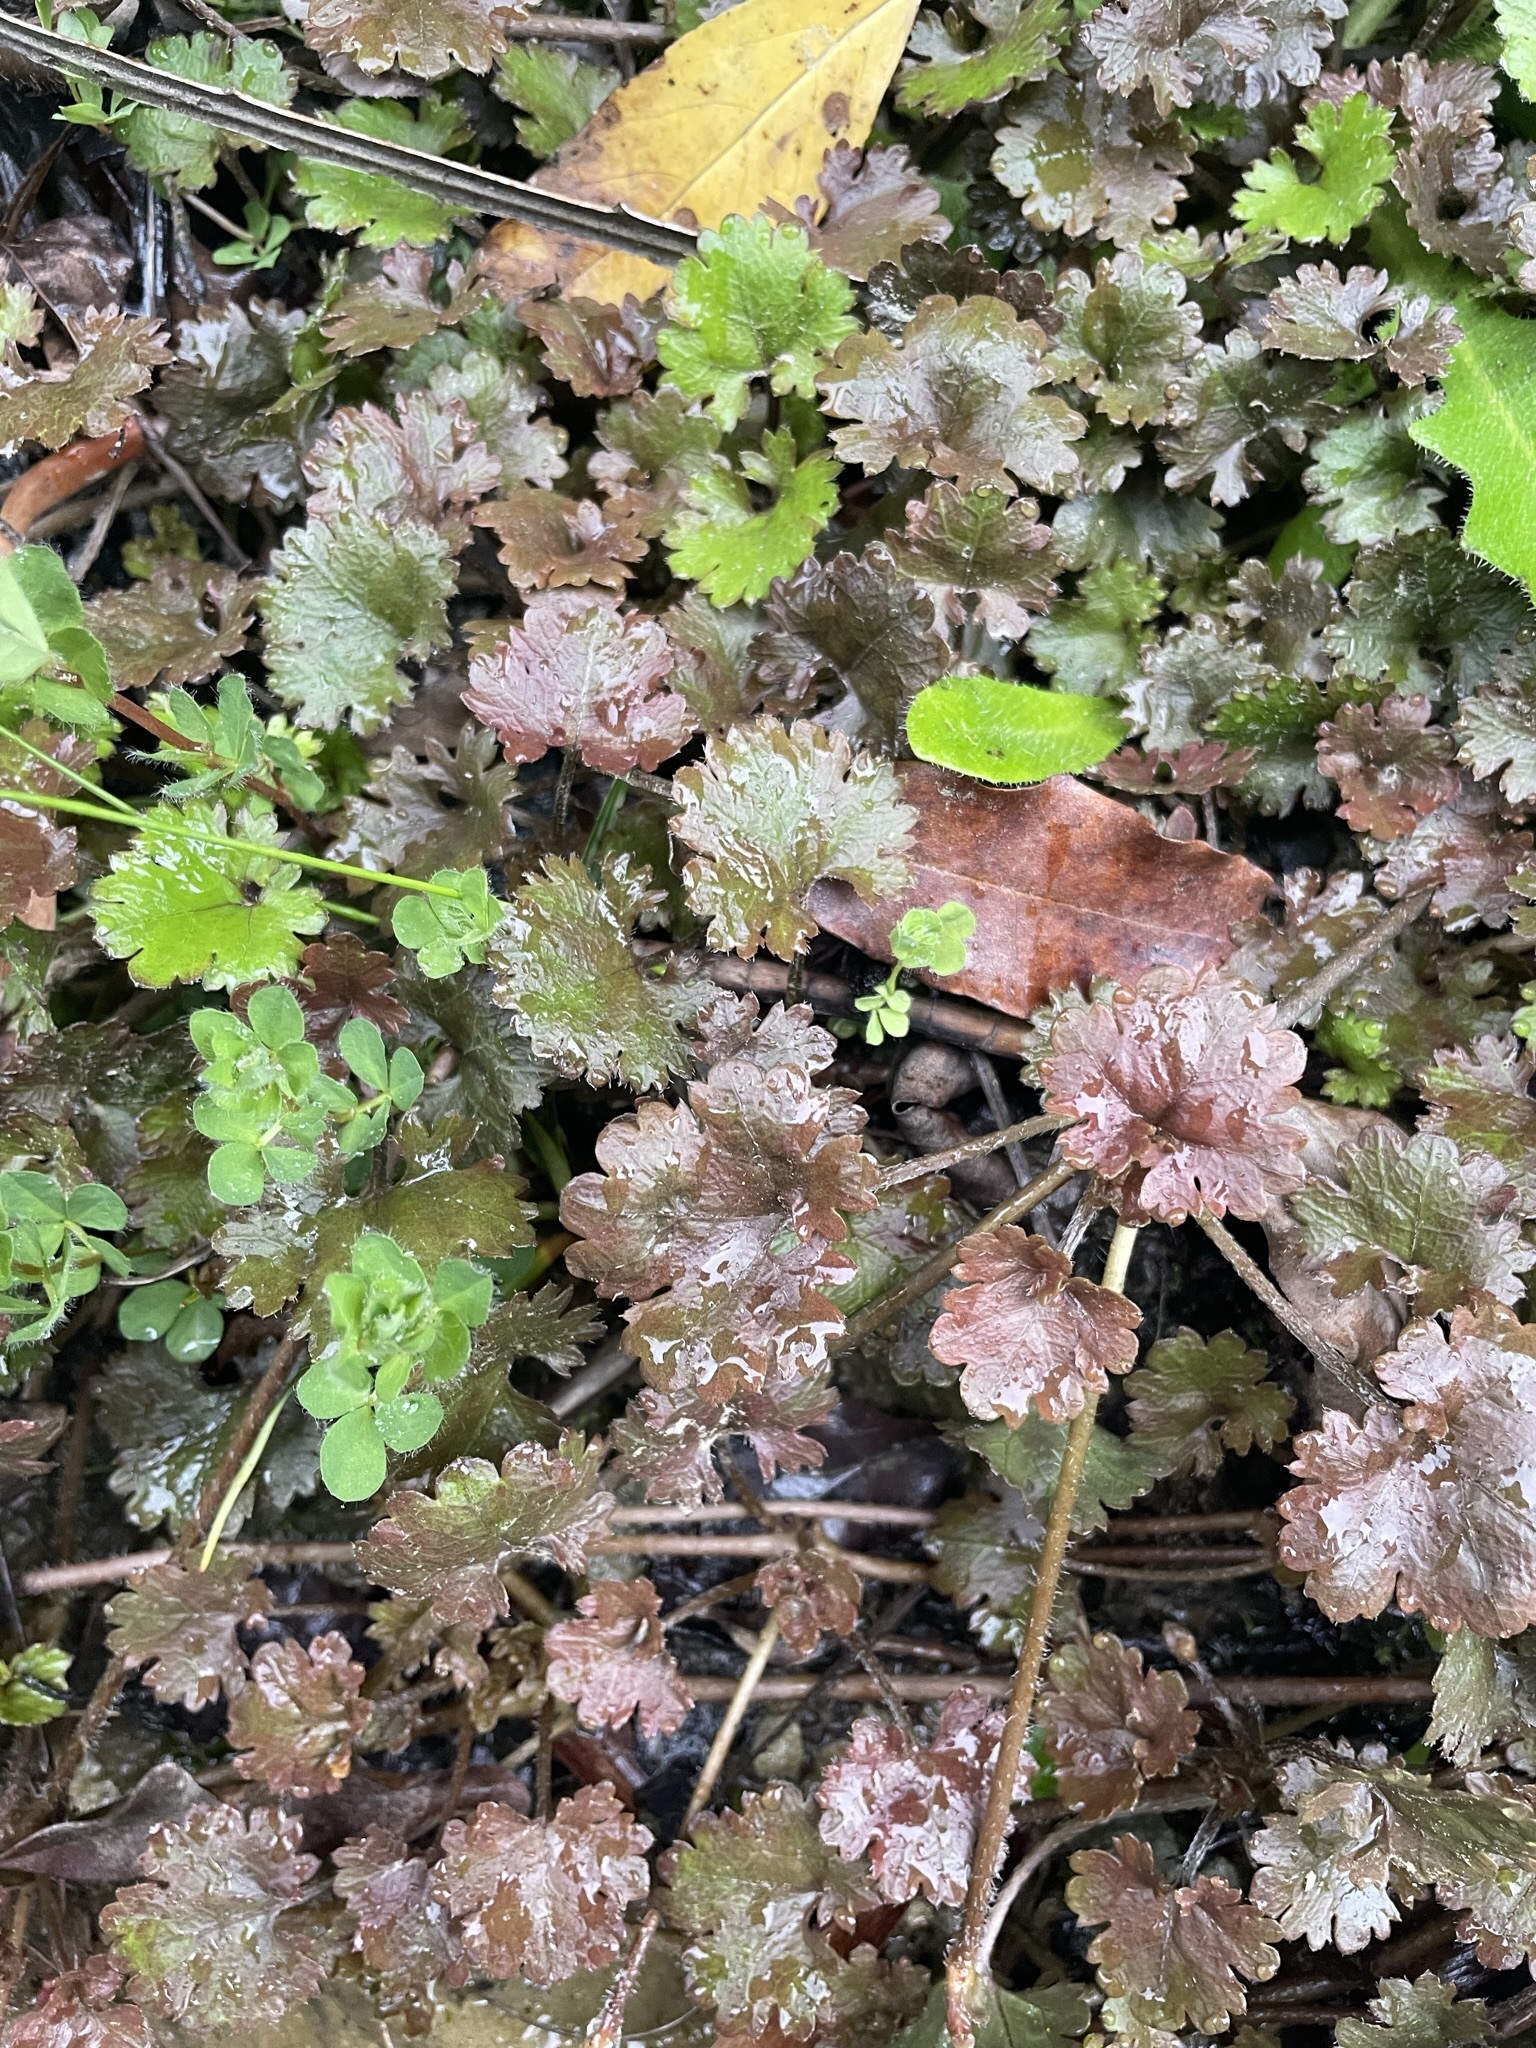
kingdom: Plantae
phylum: Tracheophyta
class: Magnoliopsida
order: Gunnerales
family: Gunneraceae
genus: Gunnera
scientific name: Gunnera monoica
